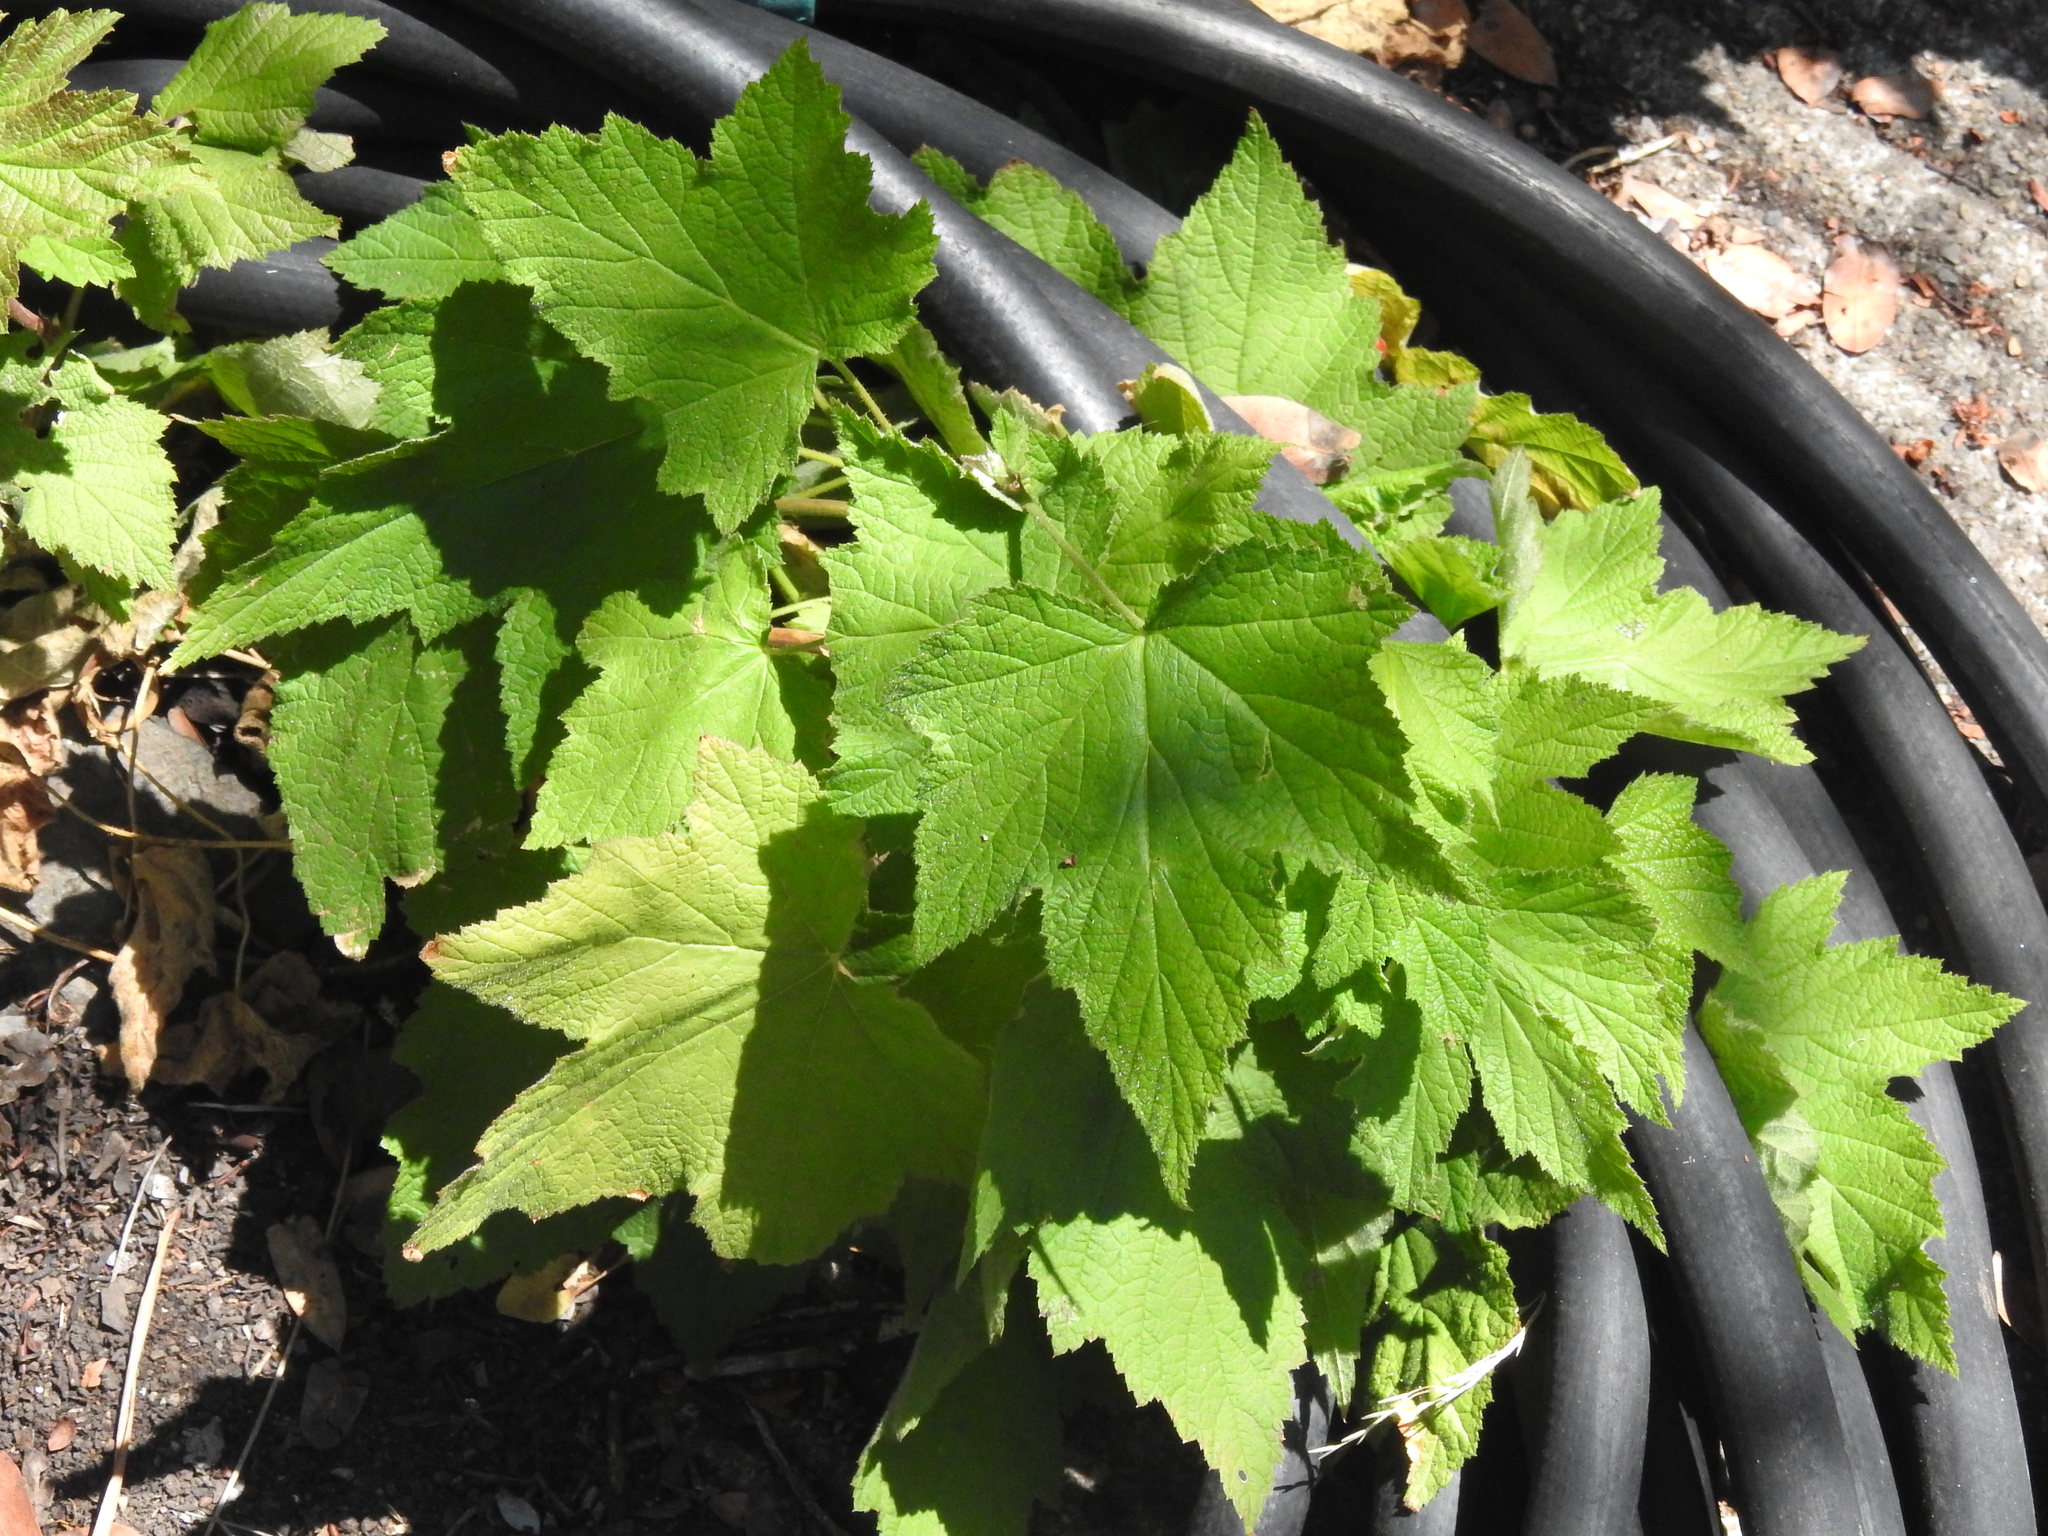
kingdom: Plantae
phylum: Tracheophyta
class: Magnoliopsida
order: Rosales
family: Rosaceae
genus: Rubus
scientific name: Rubus parviflorus
